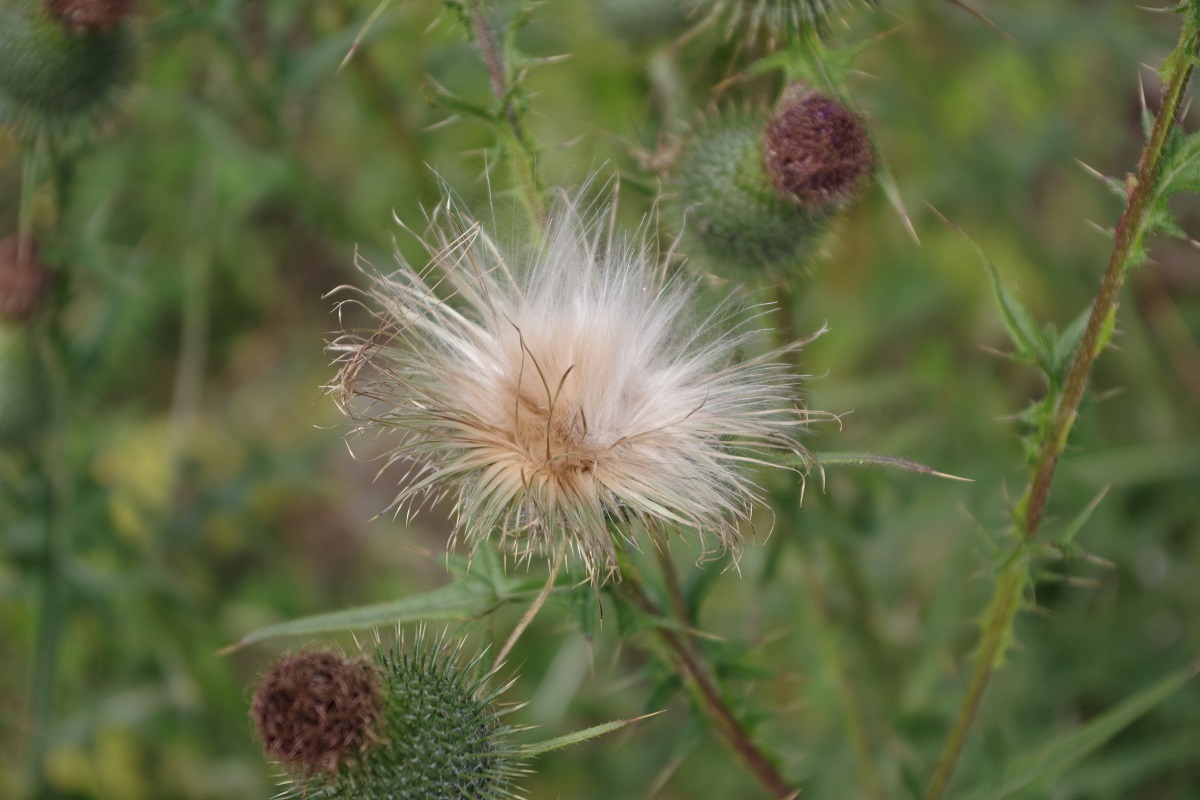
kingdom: Plantae
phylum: Tracheophyta
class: Magnoliopsida
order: Asterales
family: Asteraceae
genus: Cirsium
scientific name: Cirsium vulgare
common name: Bull thistle
